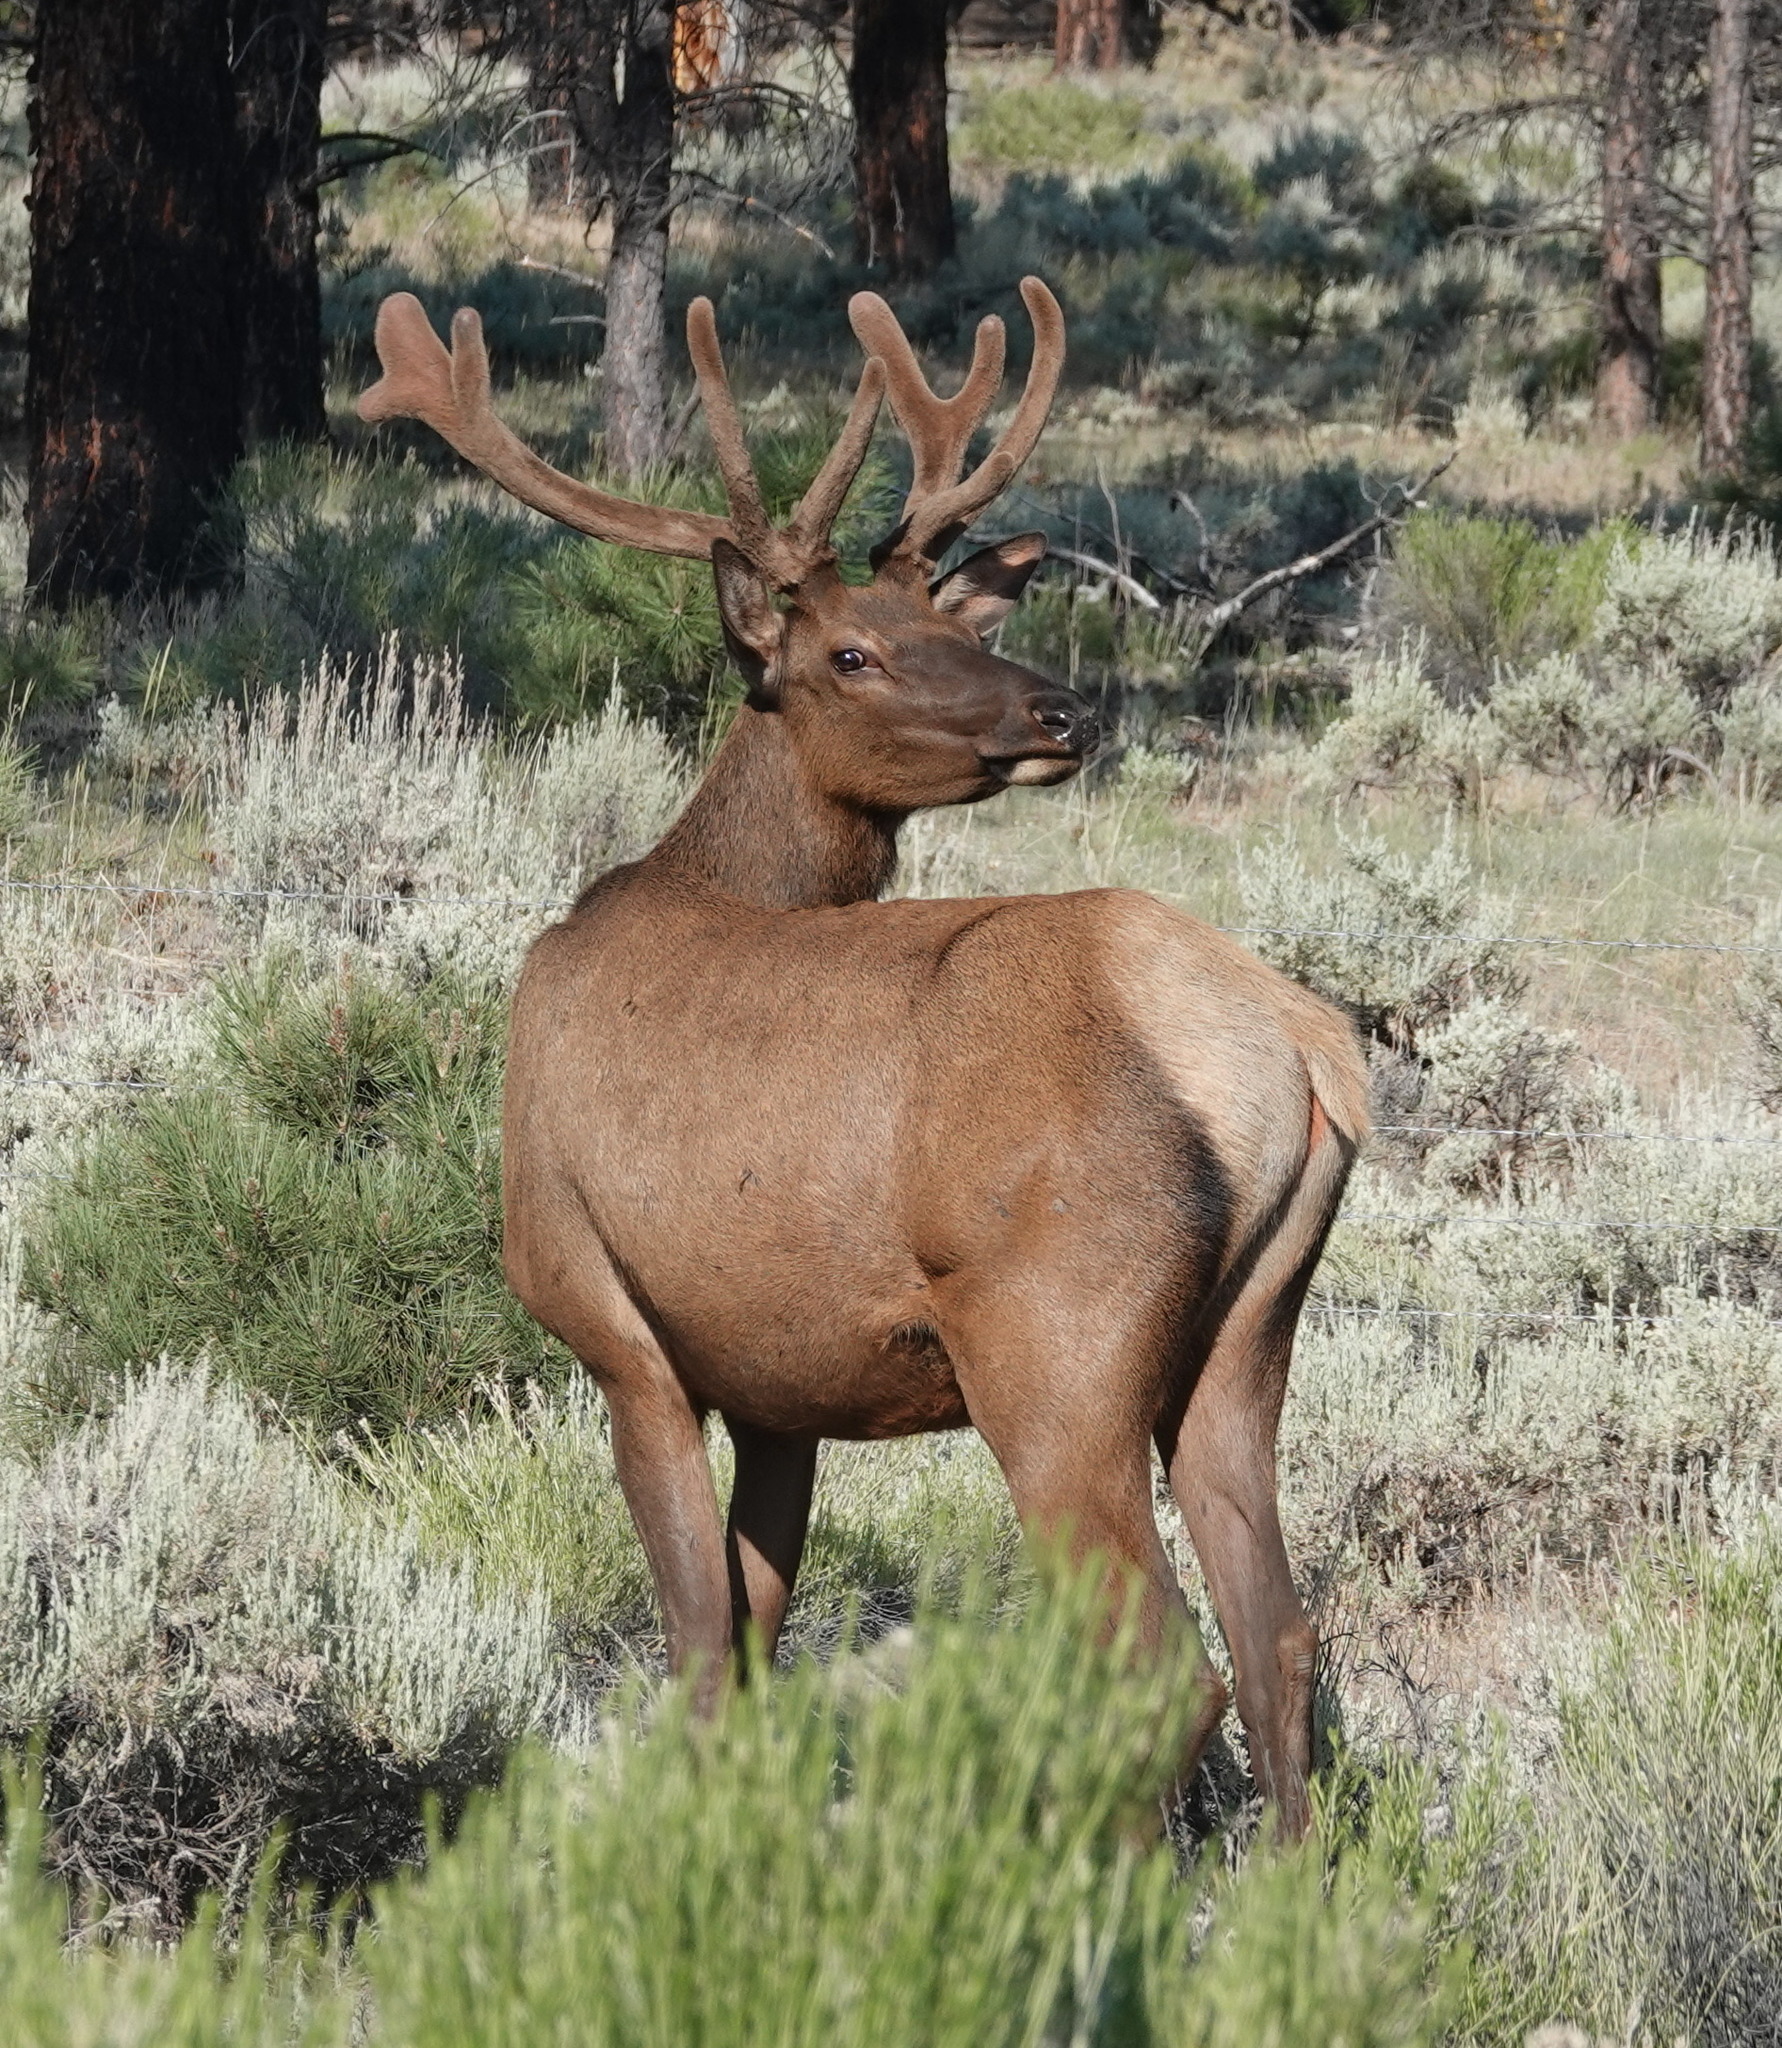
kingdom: Animalia
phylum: Chordata
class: Mammalia
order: Artiodactyla
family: Cervidae
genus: Cervus
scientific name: Cervus elaphus
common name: Red deer
